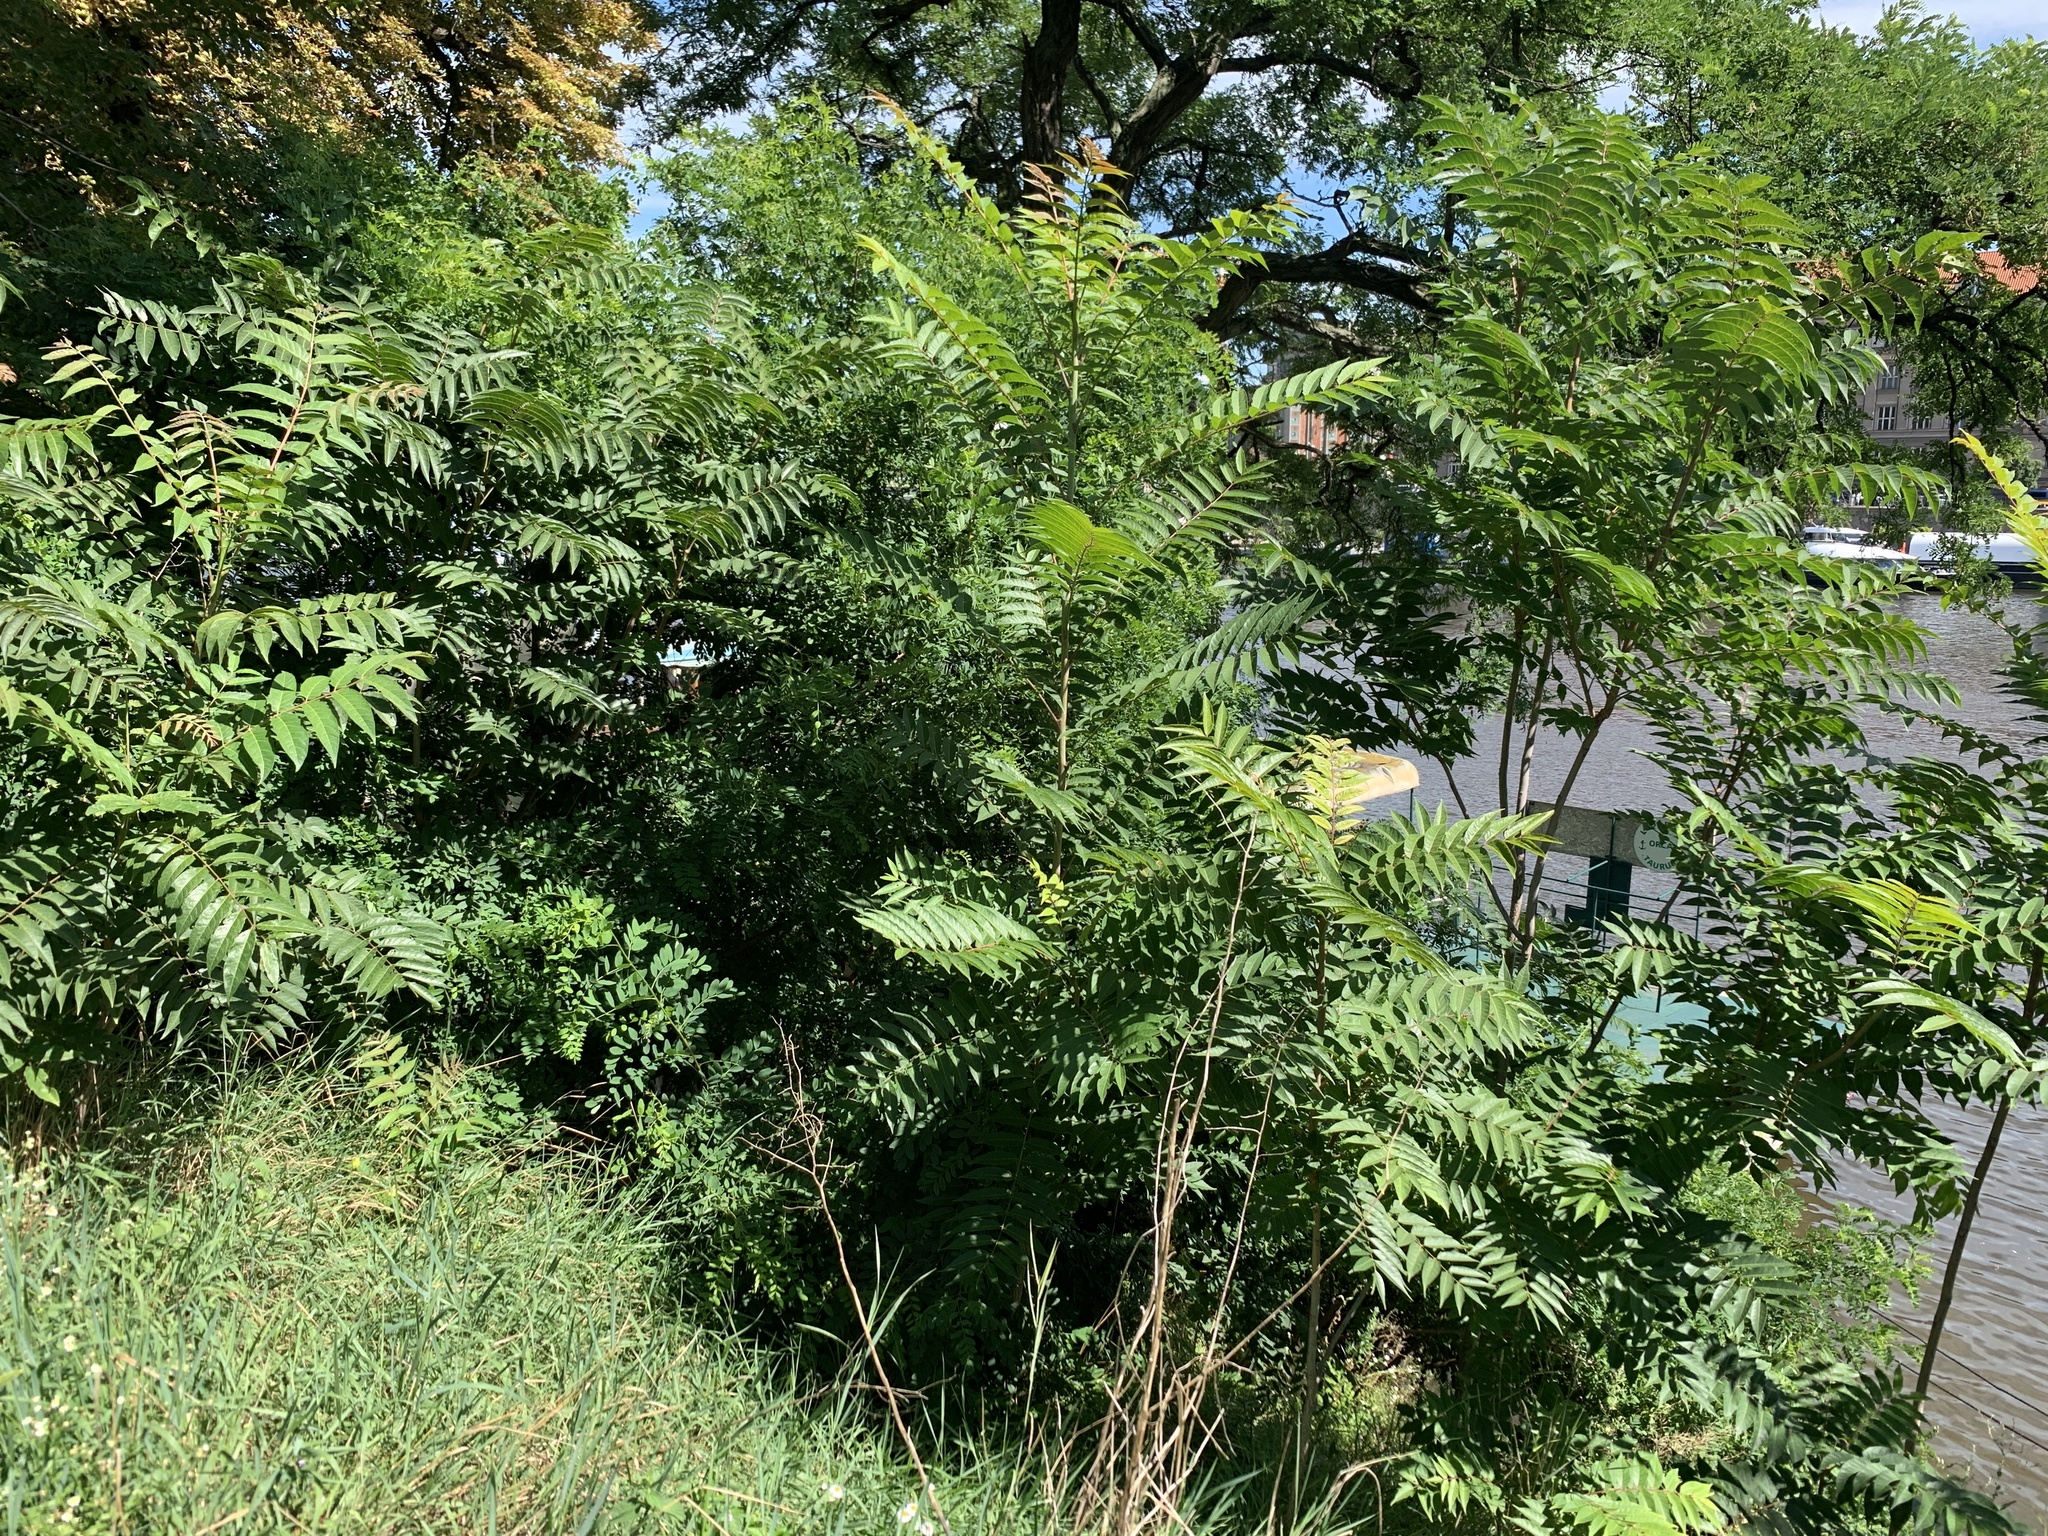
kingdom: Plantae
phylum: Tracheophyta
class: Magnoliopsida
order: Sapindales
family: Simaroubaceae
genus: Ailanthus
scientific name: Ailanthus altissima
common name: Tree-of-heaven
